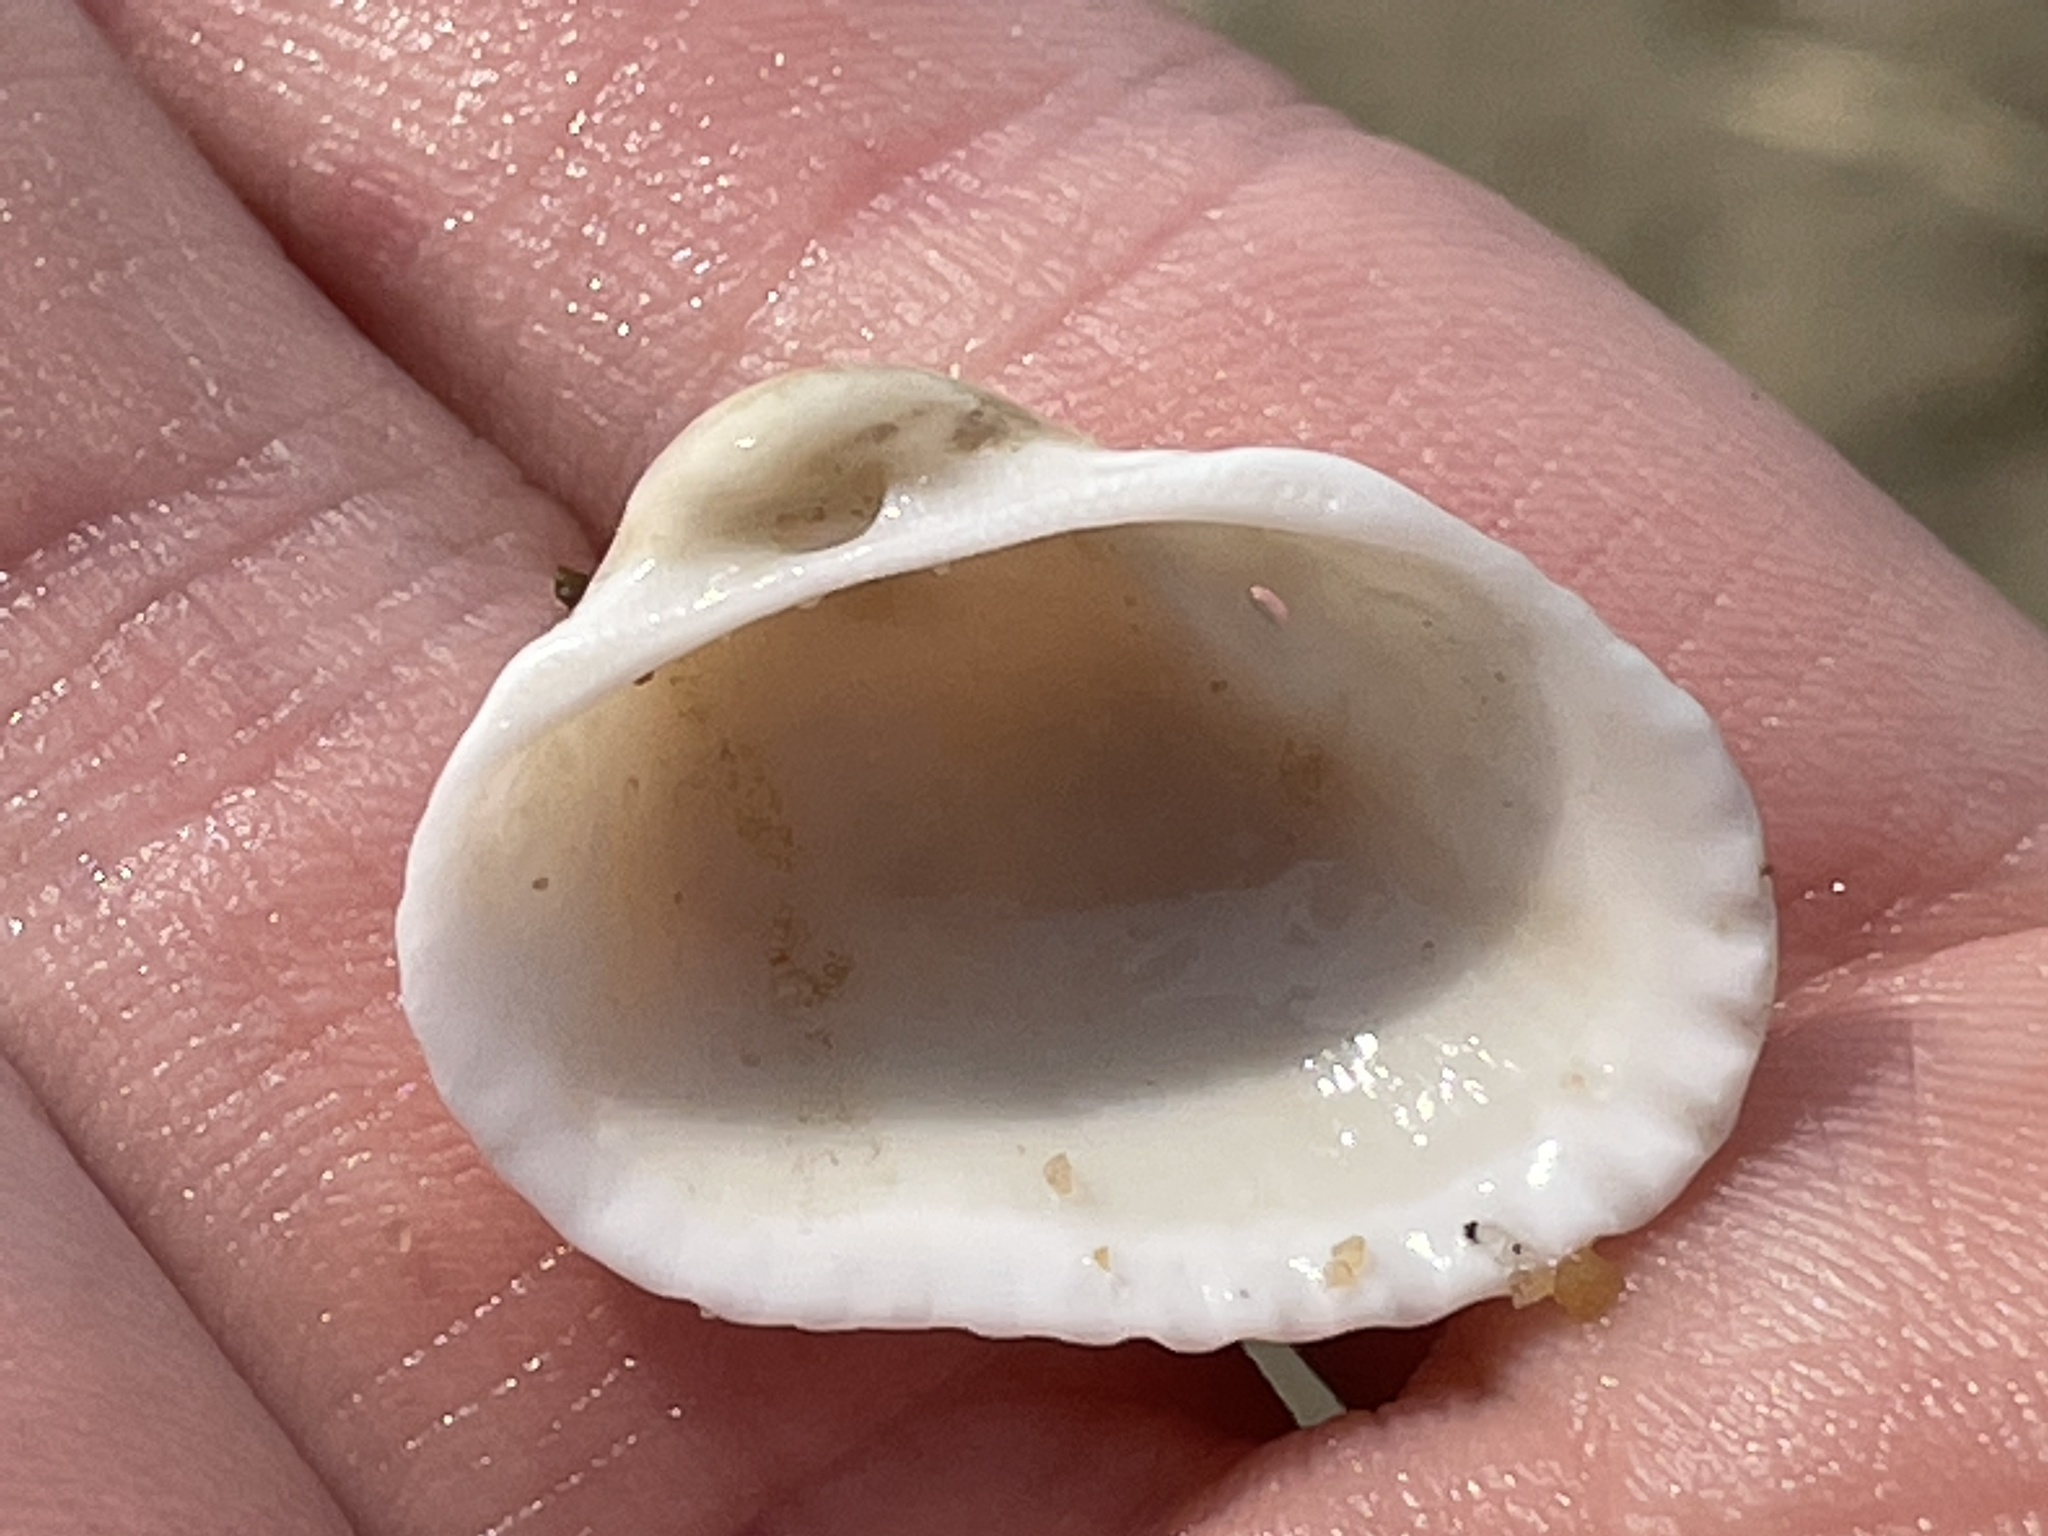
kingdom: Animalia
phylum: Mollusca
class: Bivalvia
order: Arcida
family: Arcidae
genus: Anadara
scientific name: Anadara transversa
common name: Transverse ark
